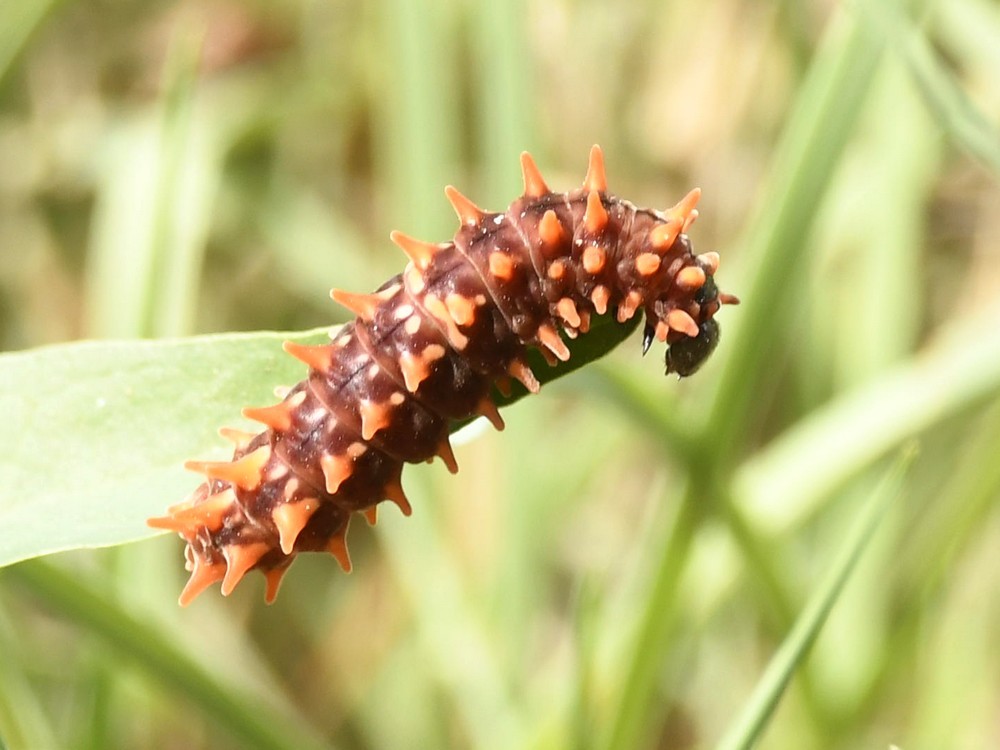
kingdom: Animalia
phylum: Arthropoda
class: Insecta
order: Lepidoptera
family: Papilionidae
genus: Pachliopta
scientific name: Pachliopta aristolochiae
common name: Common rose
